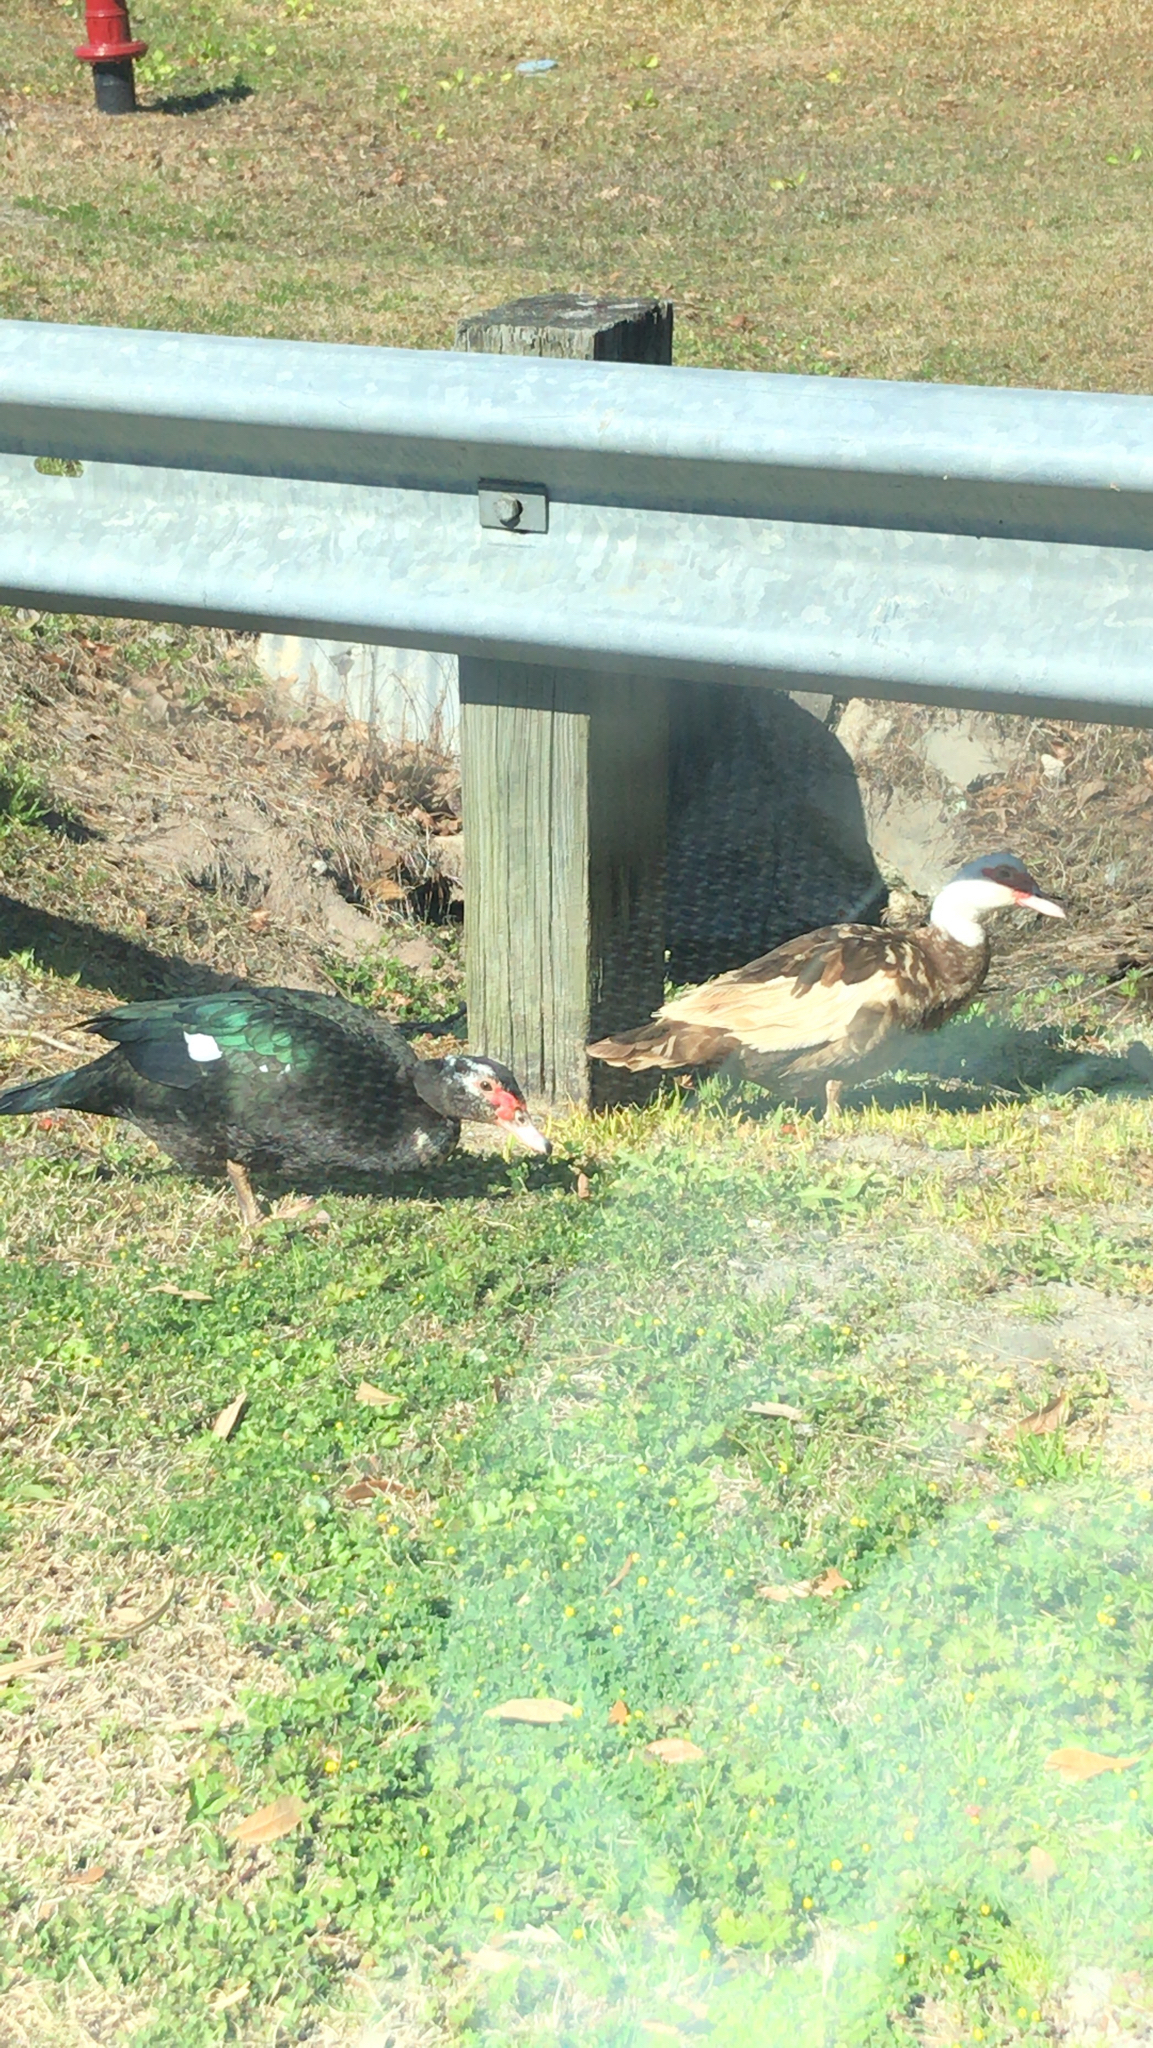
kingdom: Animalia
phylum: Chordata
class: Aves
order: Anseriformes
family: Anatidae
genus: Cairina
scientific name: Cairina moschata
